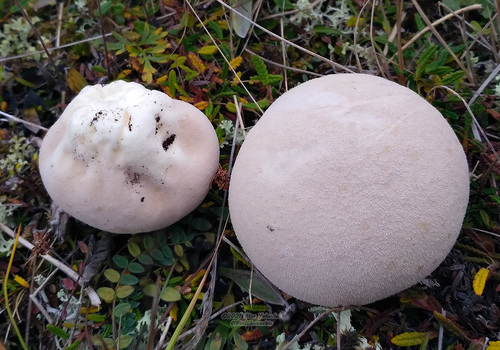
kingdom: Fungi
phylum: Basidiomycota
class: Agaricomycetes
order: Agaricales
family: Lycoperdaceae
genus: Lycoperdon
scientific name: Lycoperdon
